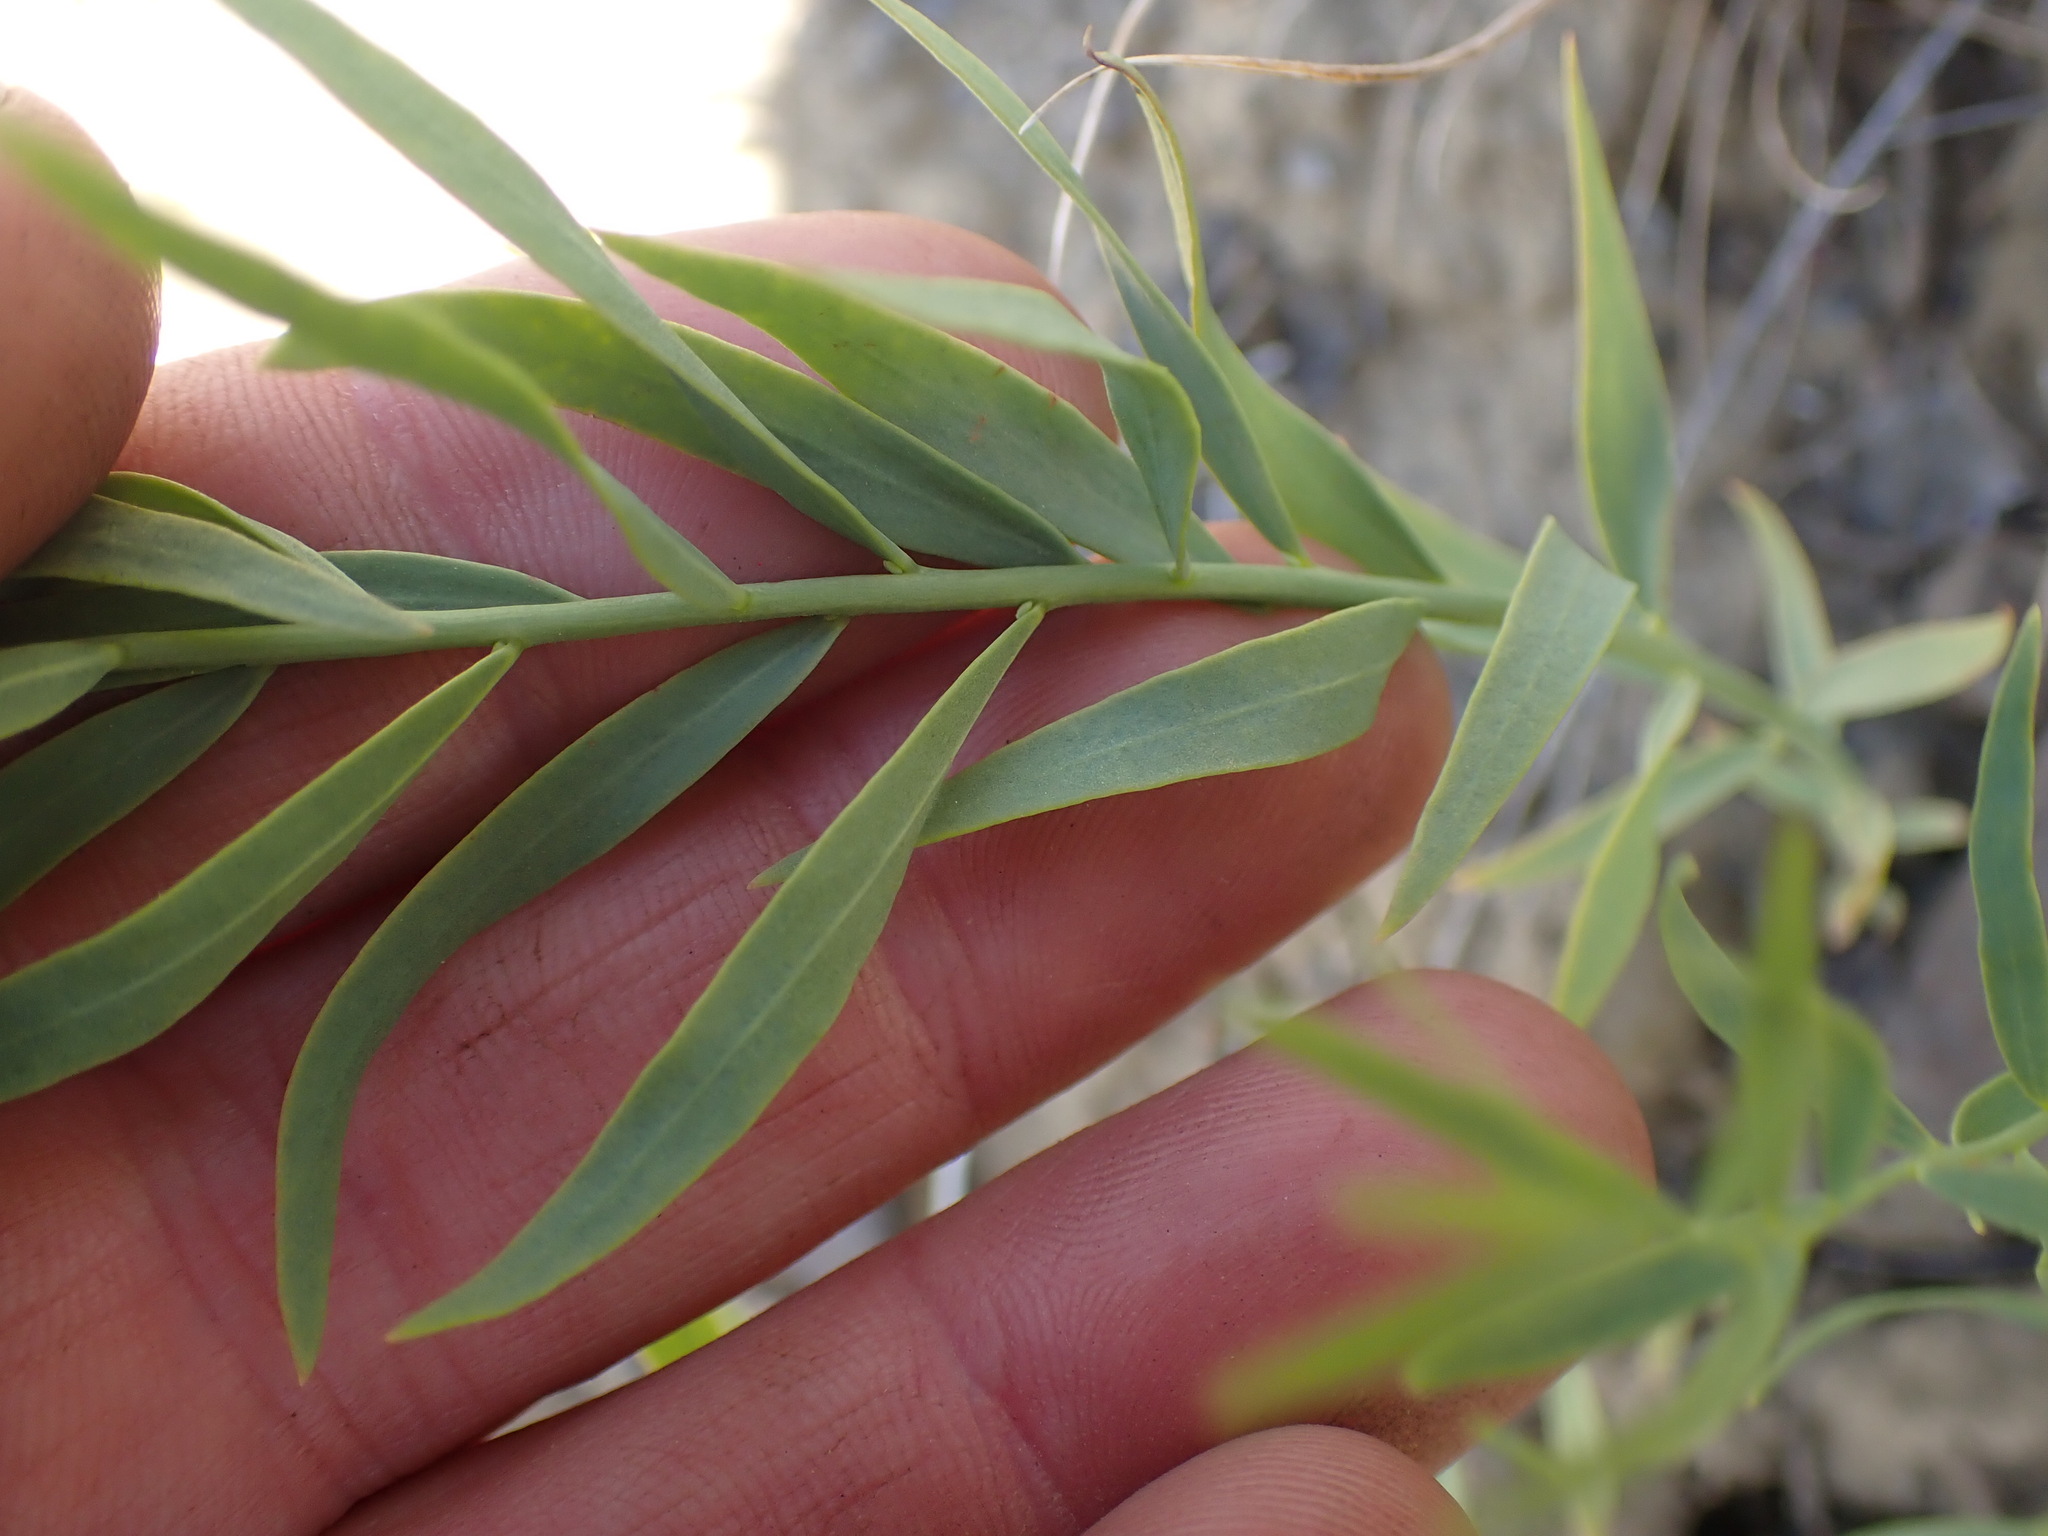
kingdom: Plantae
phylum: Tracheophyta
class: Magnoliopsida
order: Santalales
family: Comandraceae
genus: Comandra
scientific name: Comandra umbellata
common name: Bastard toadflax
